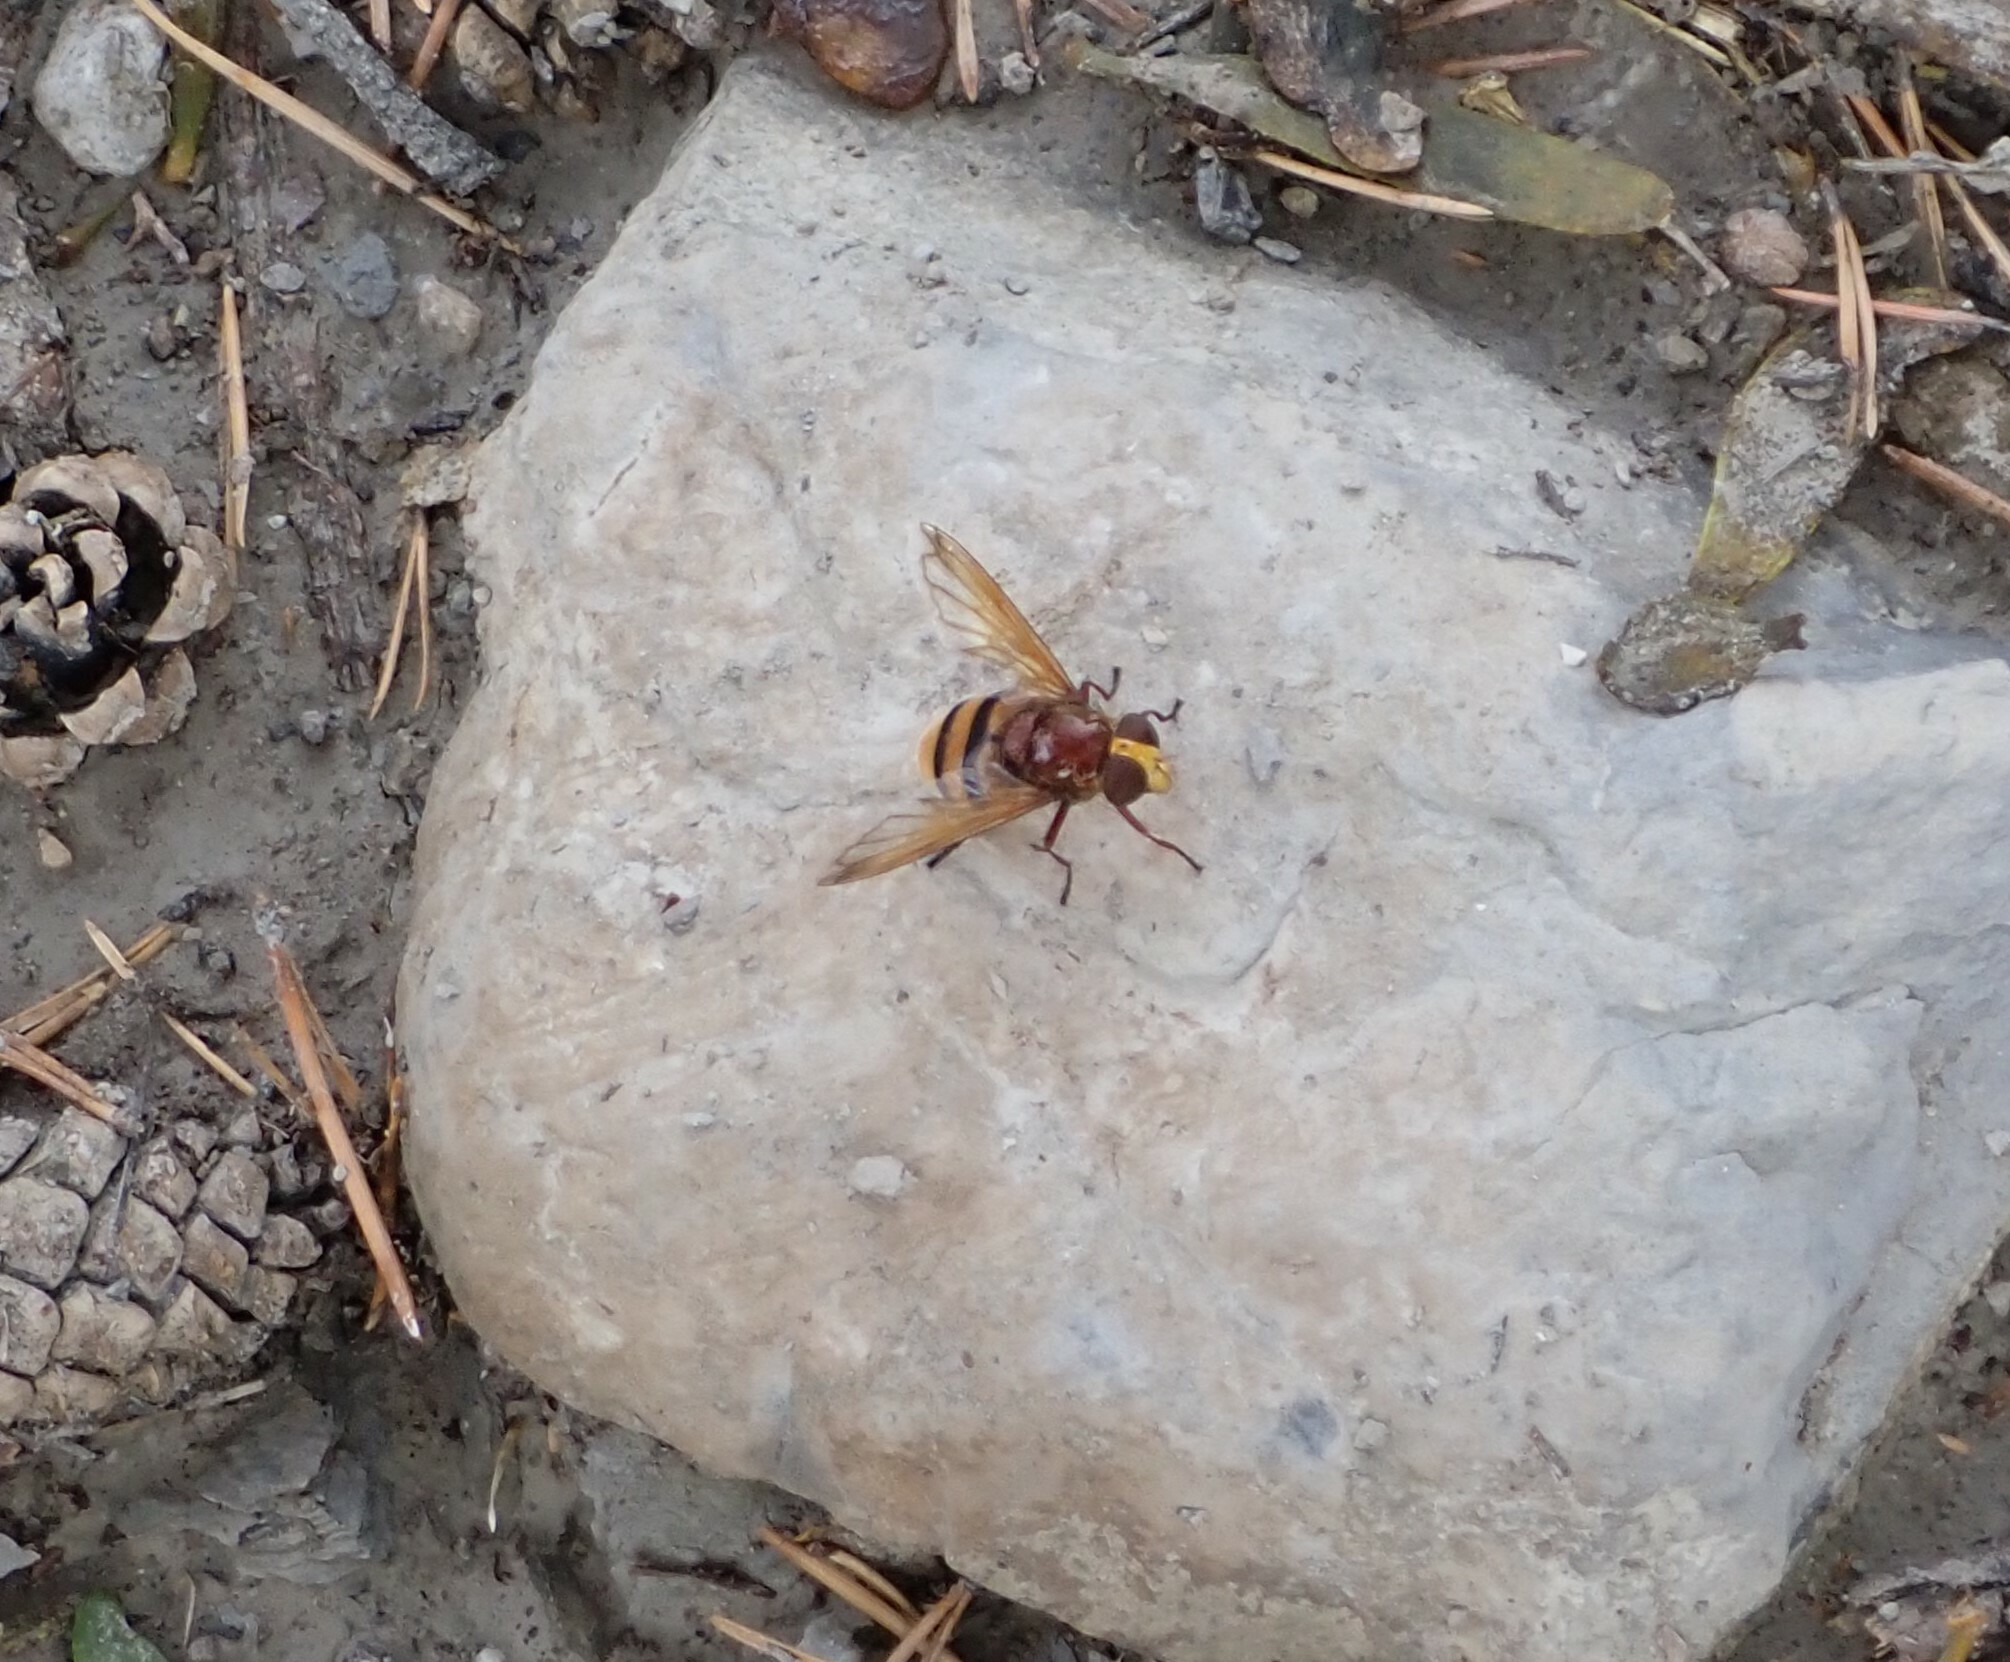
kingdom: Animalia
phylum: Arthropoda
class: Insecta
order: Diptera
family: Syrphidae
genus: Volucella
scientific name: Volucella zonaria
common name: Hornet hoverfly
